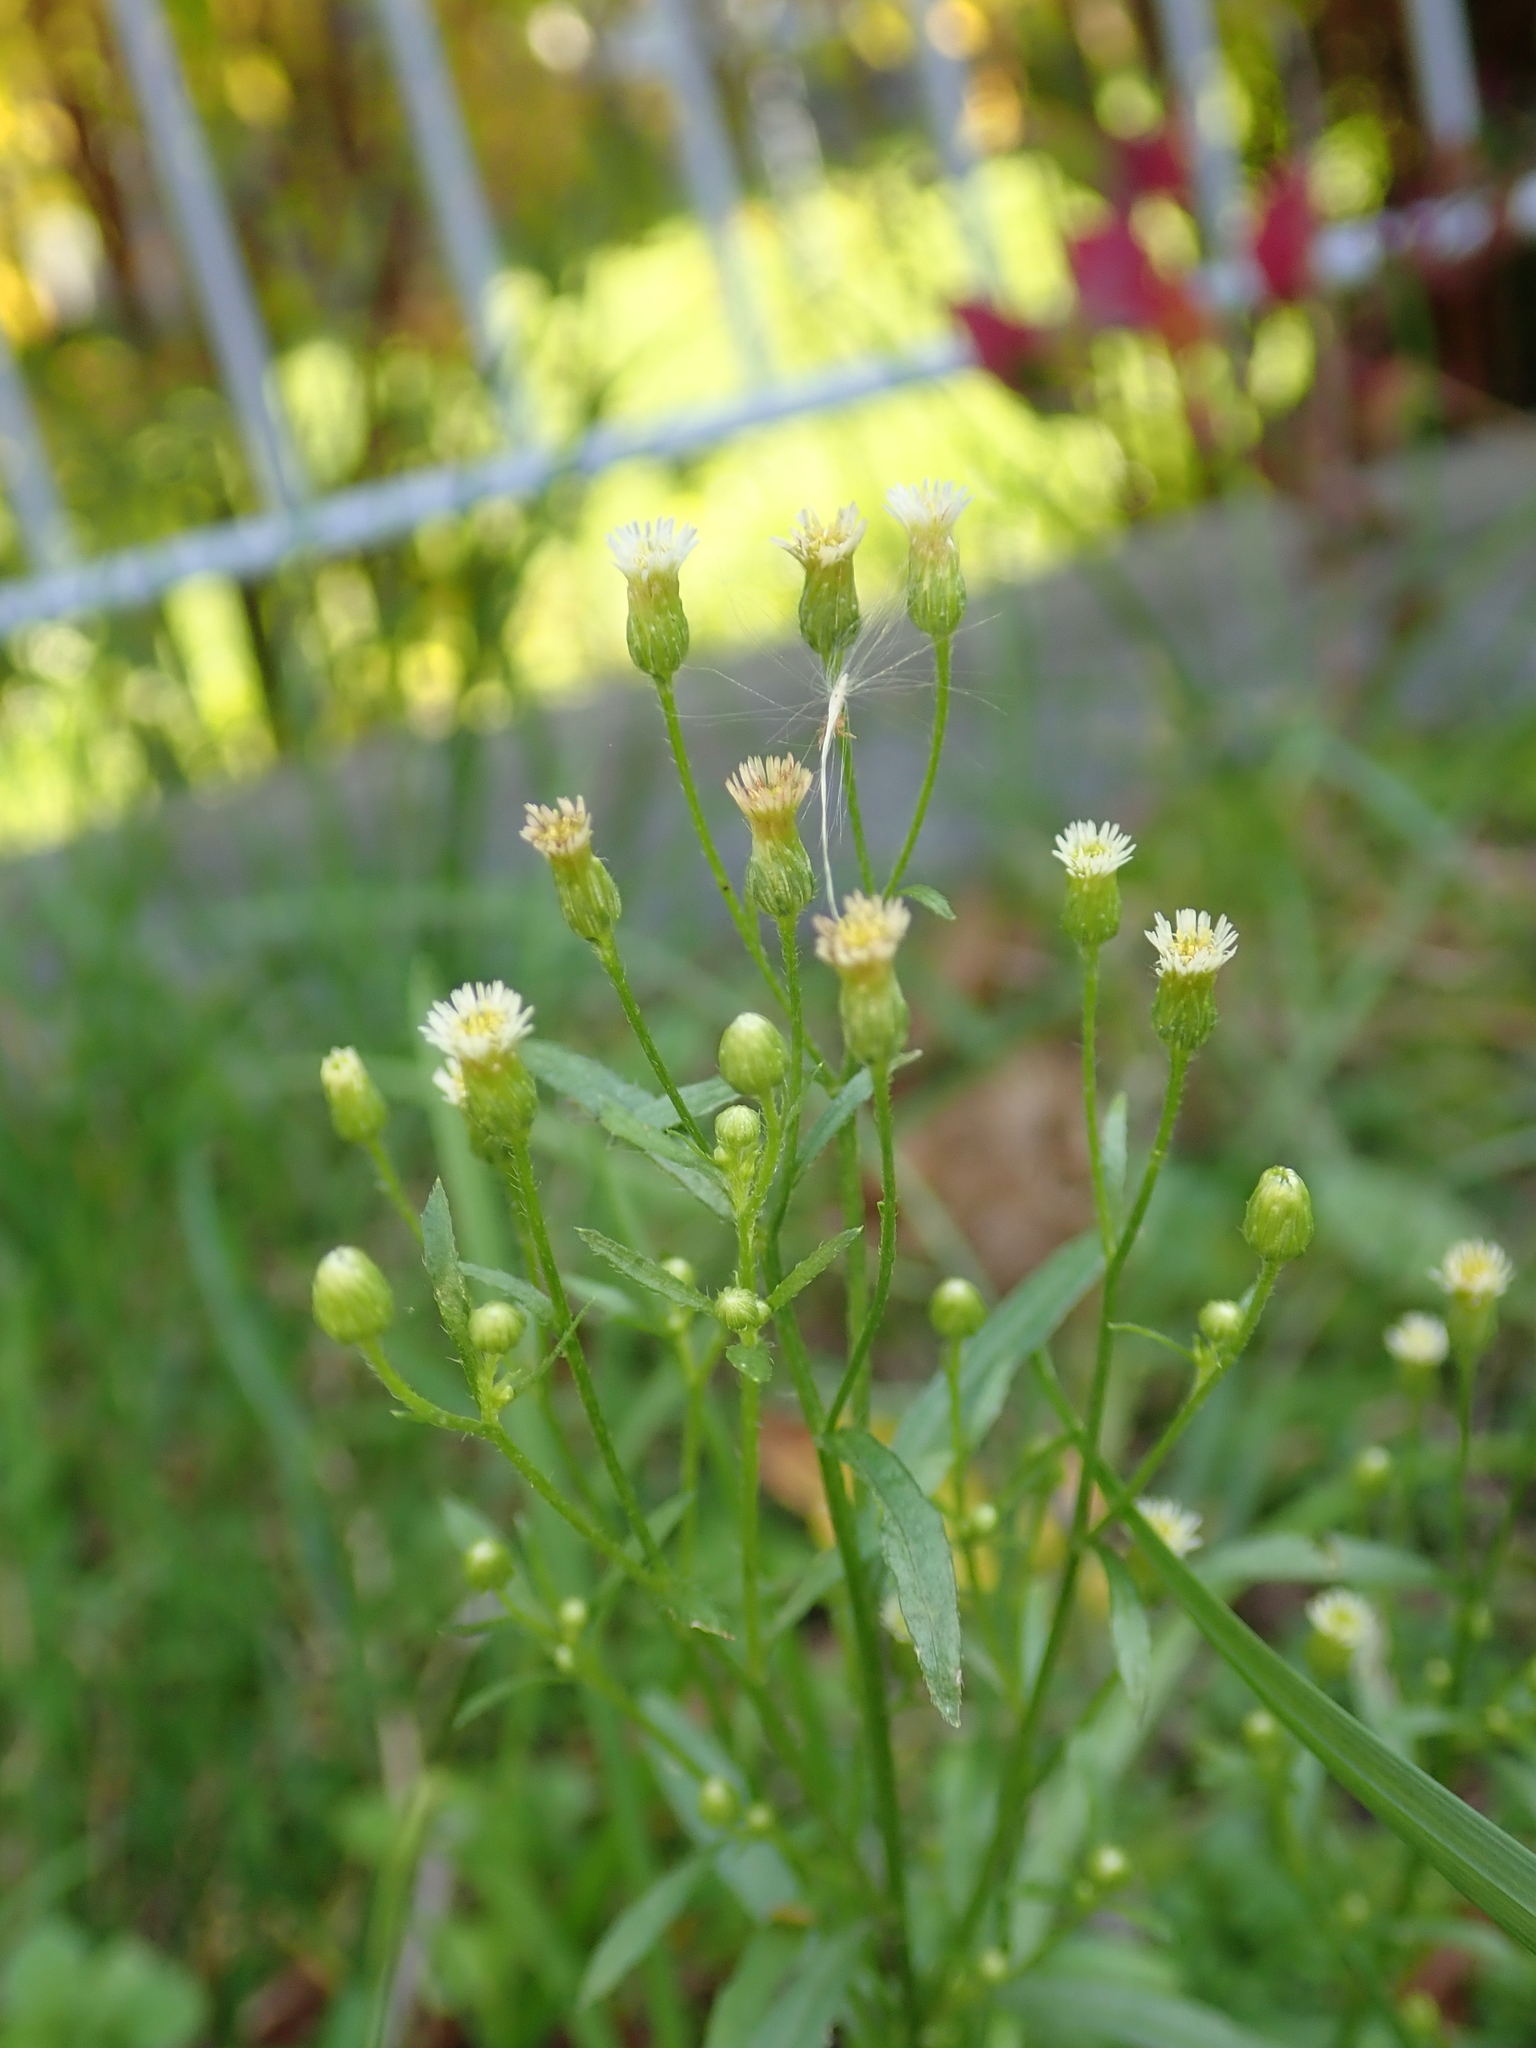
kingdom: Plantae
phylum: Tracheophyta
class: Magnoliopsida
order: Asterales
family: Asteraceae
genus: Erigeron
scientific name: Erigeron canadensis
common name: Canadian fleabane
